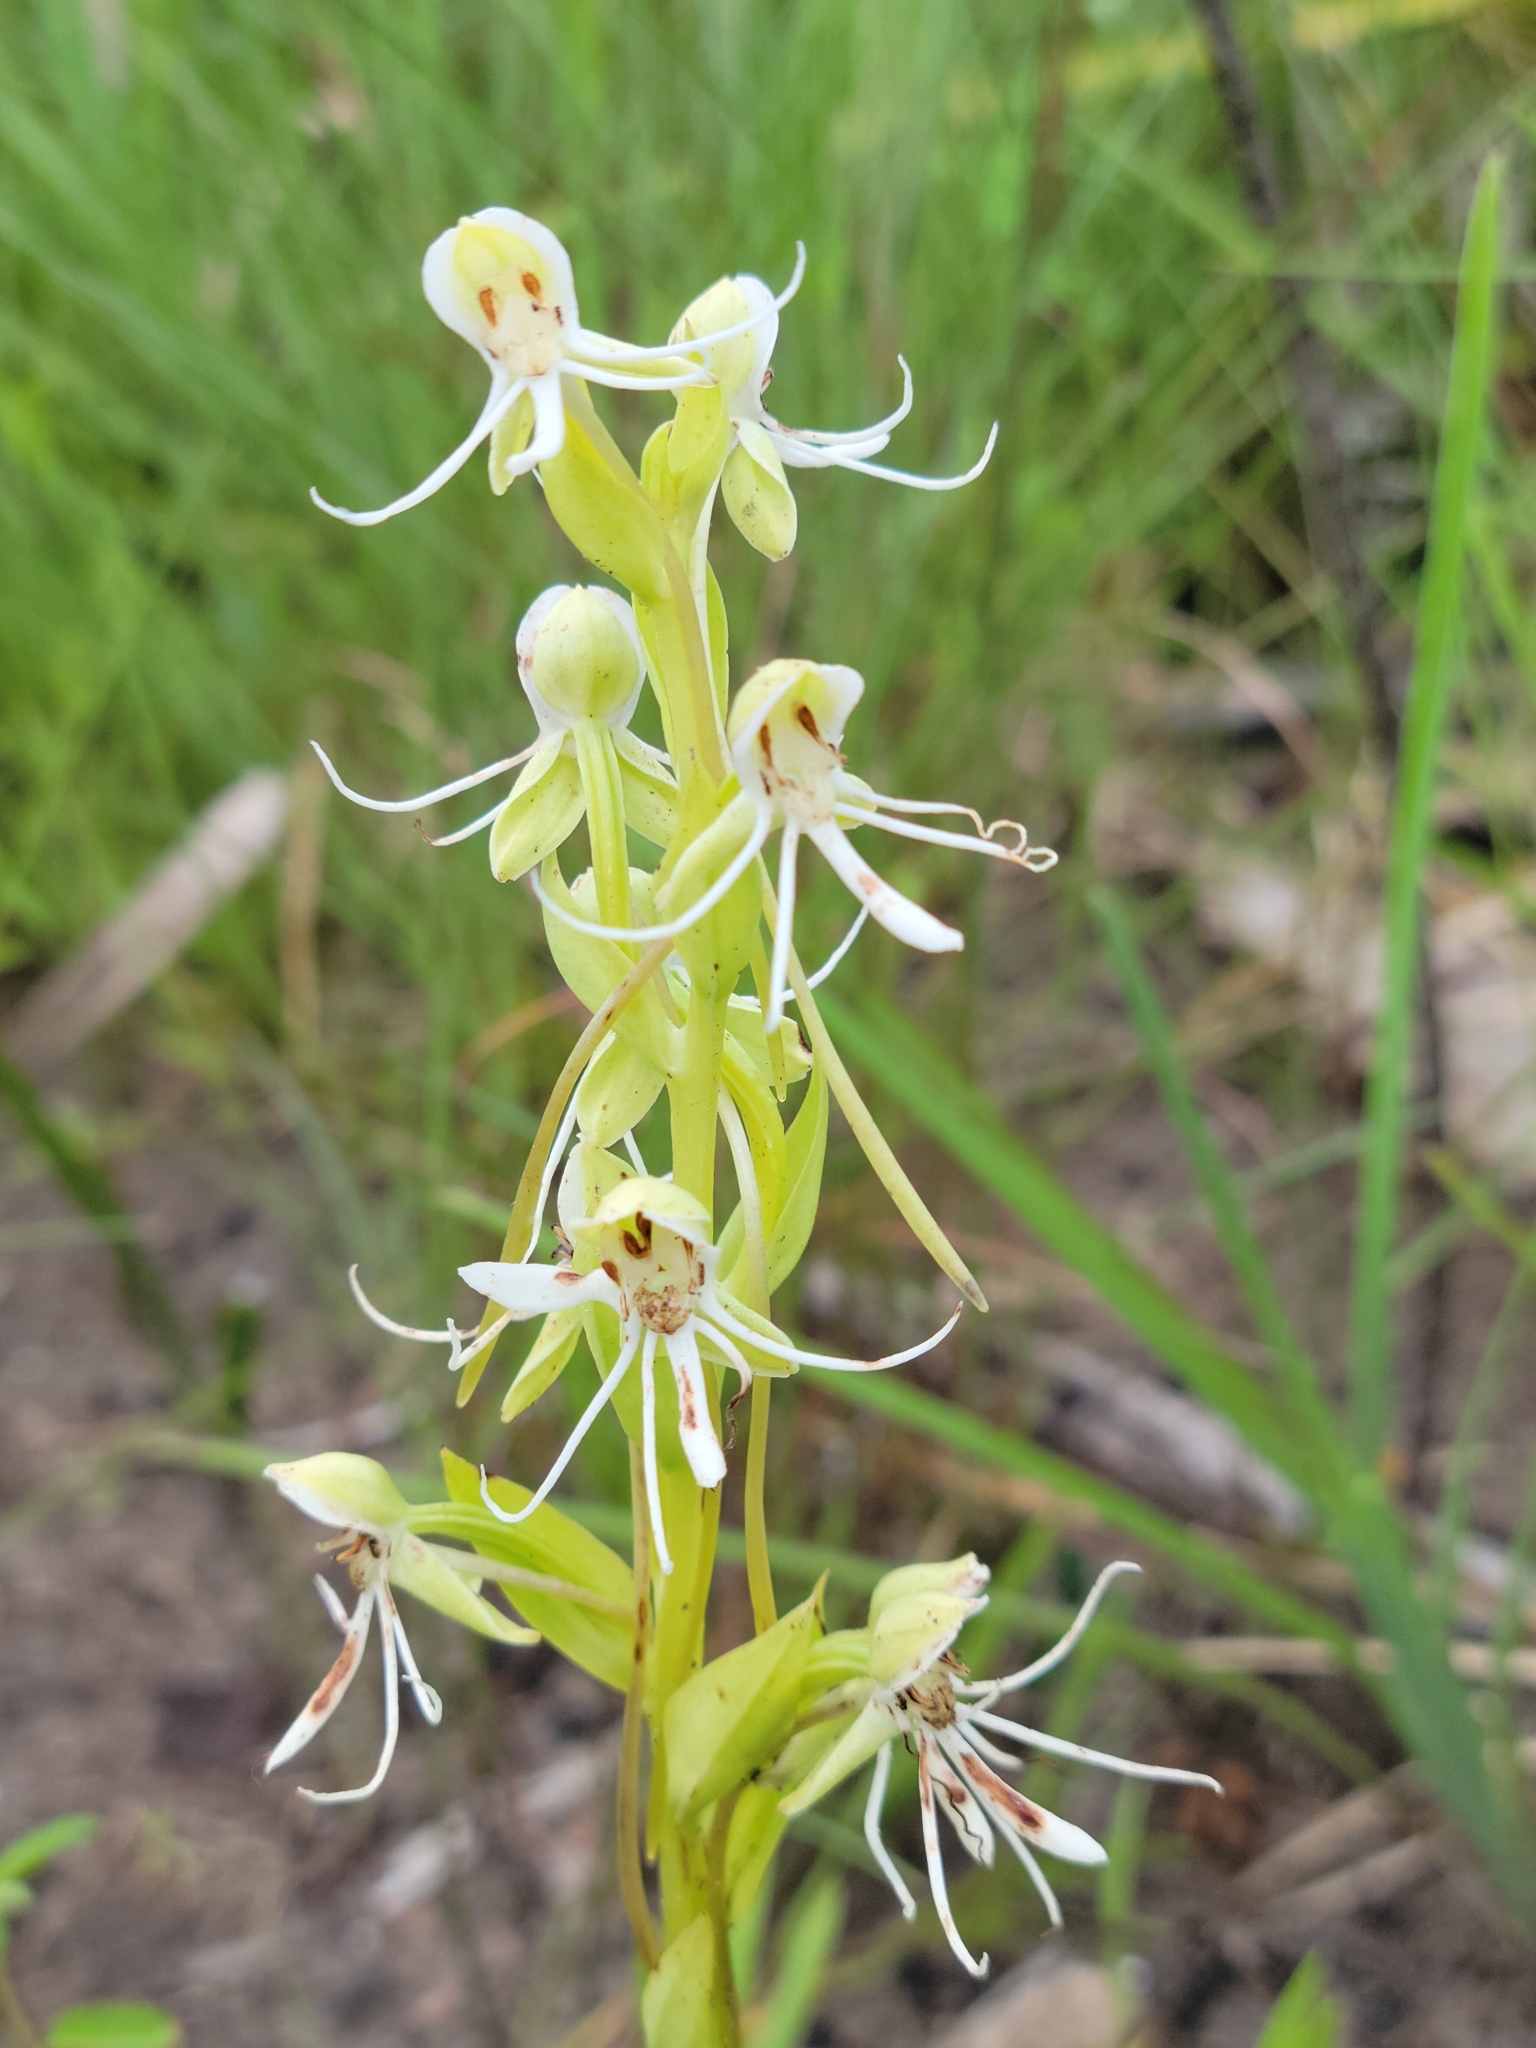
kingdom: Plantae
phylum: Tracheophyta
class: Liliopsida
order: Asparagales
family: Orchidaceae
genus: Habenaria
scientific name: Habenaria quinqueseta
